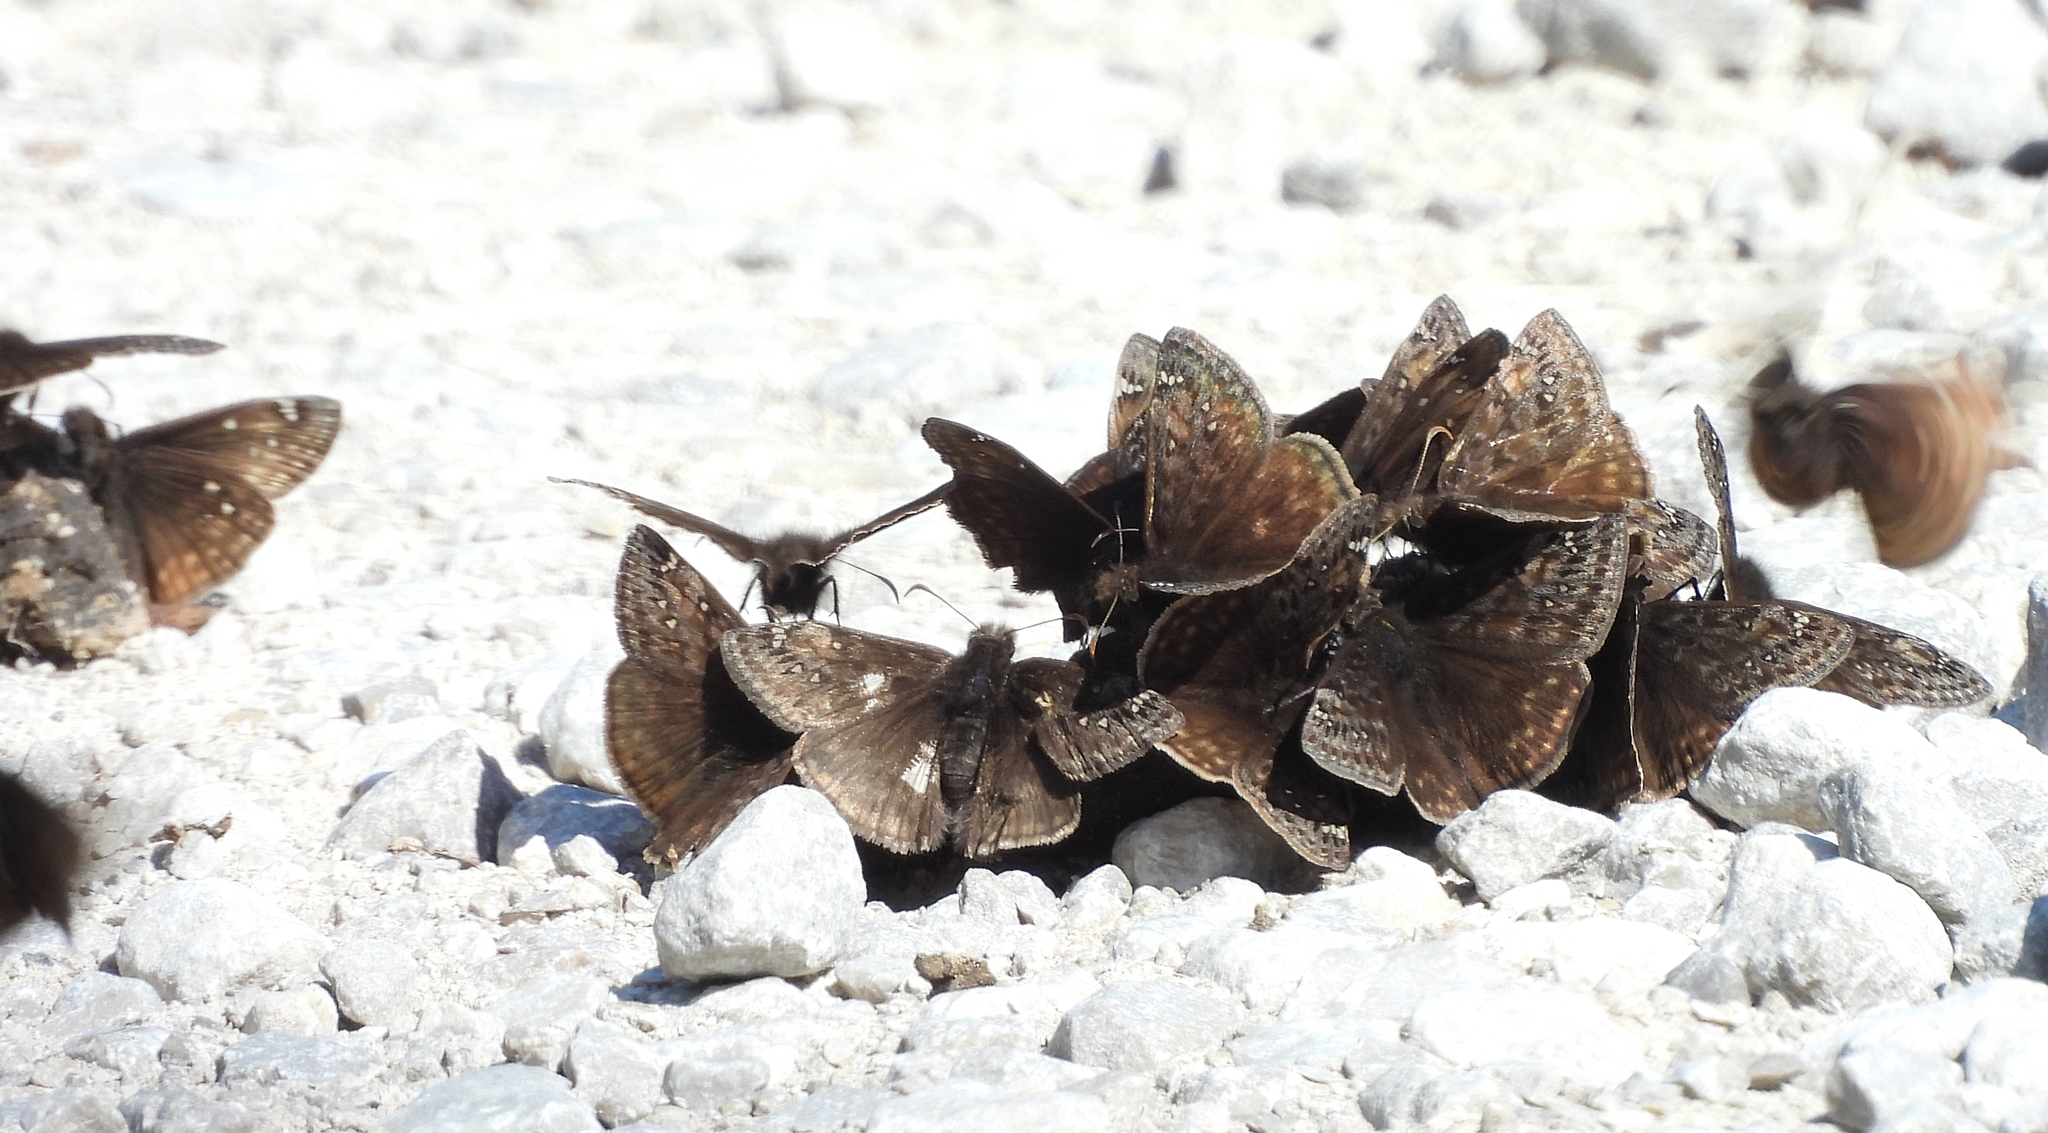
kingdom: Animalia
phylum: Arthropoda
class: Insecta
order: Lepidoptera
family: Hesperiidae
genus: Erynnis
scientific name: Erynnis juvenalis
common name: Juvenal's duskywing
